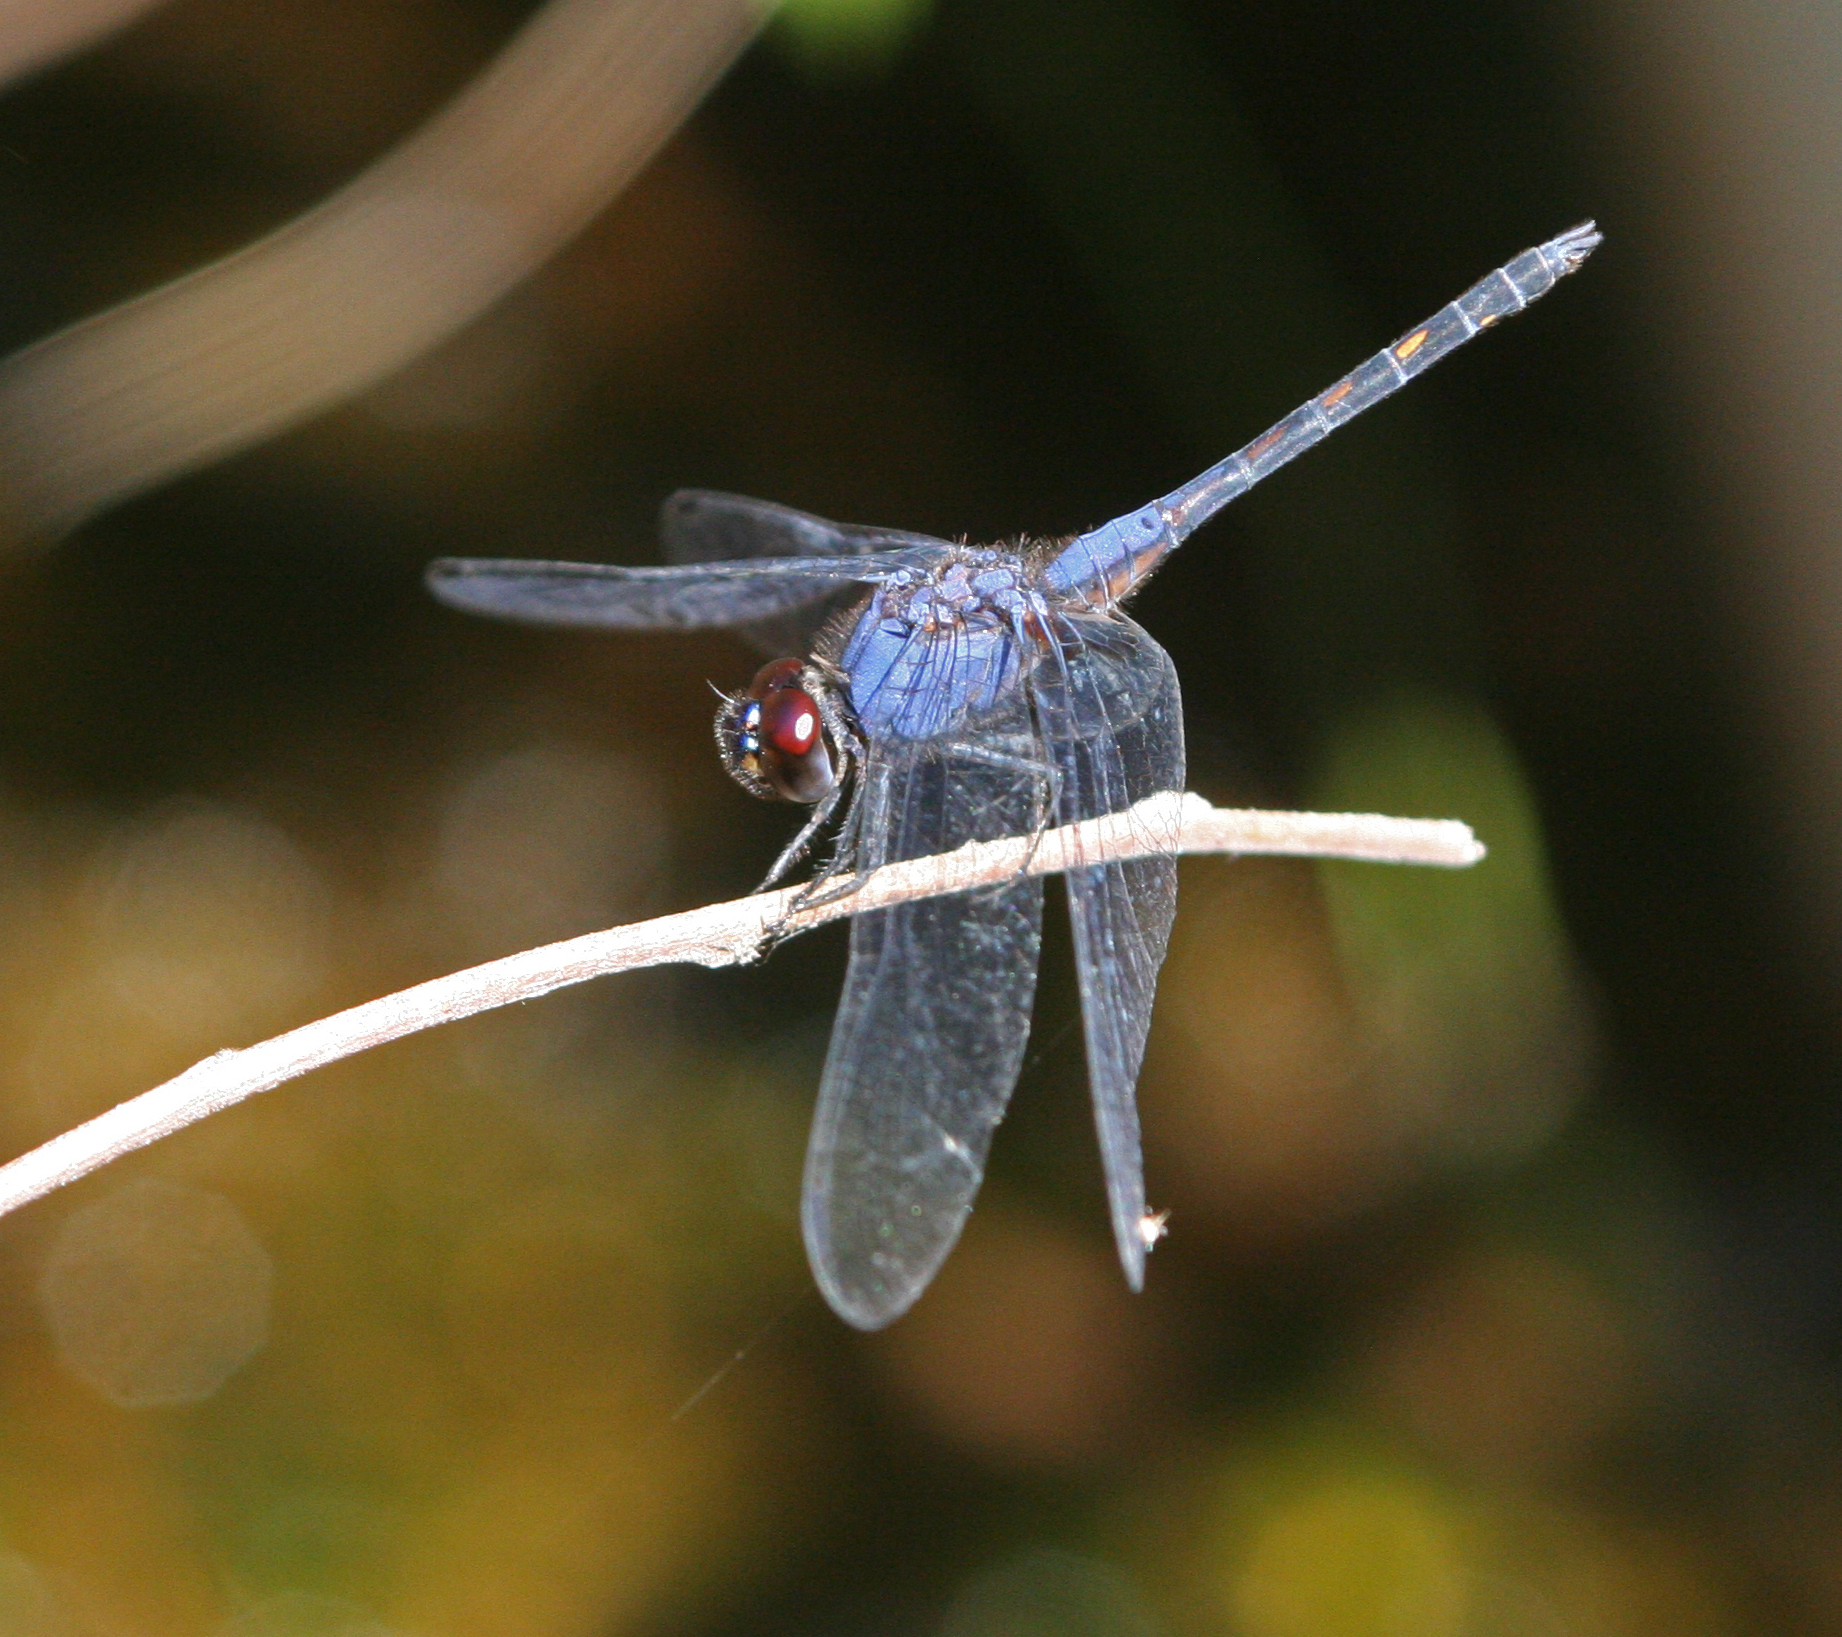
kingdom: Animalia
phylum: Arthropoda
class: Insecta
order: Odonata
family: Libellulidae
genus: Trithemis
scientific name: Trithemis festiva
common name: Indigo dropwing
